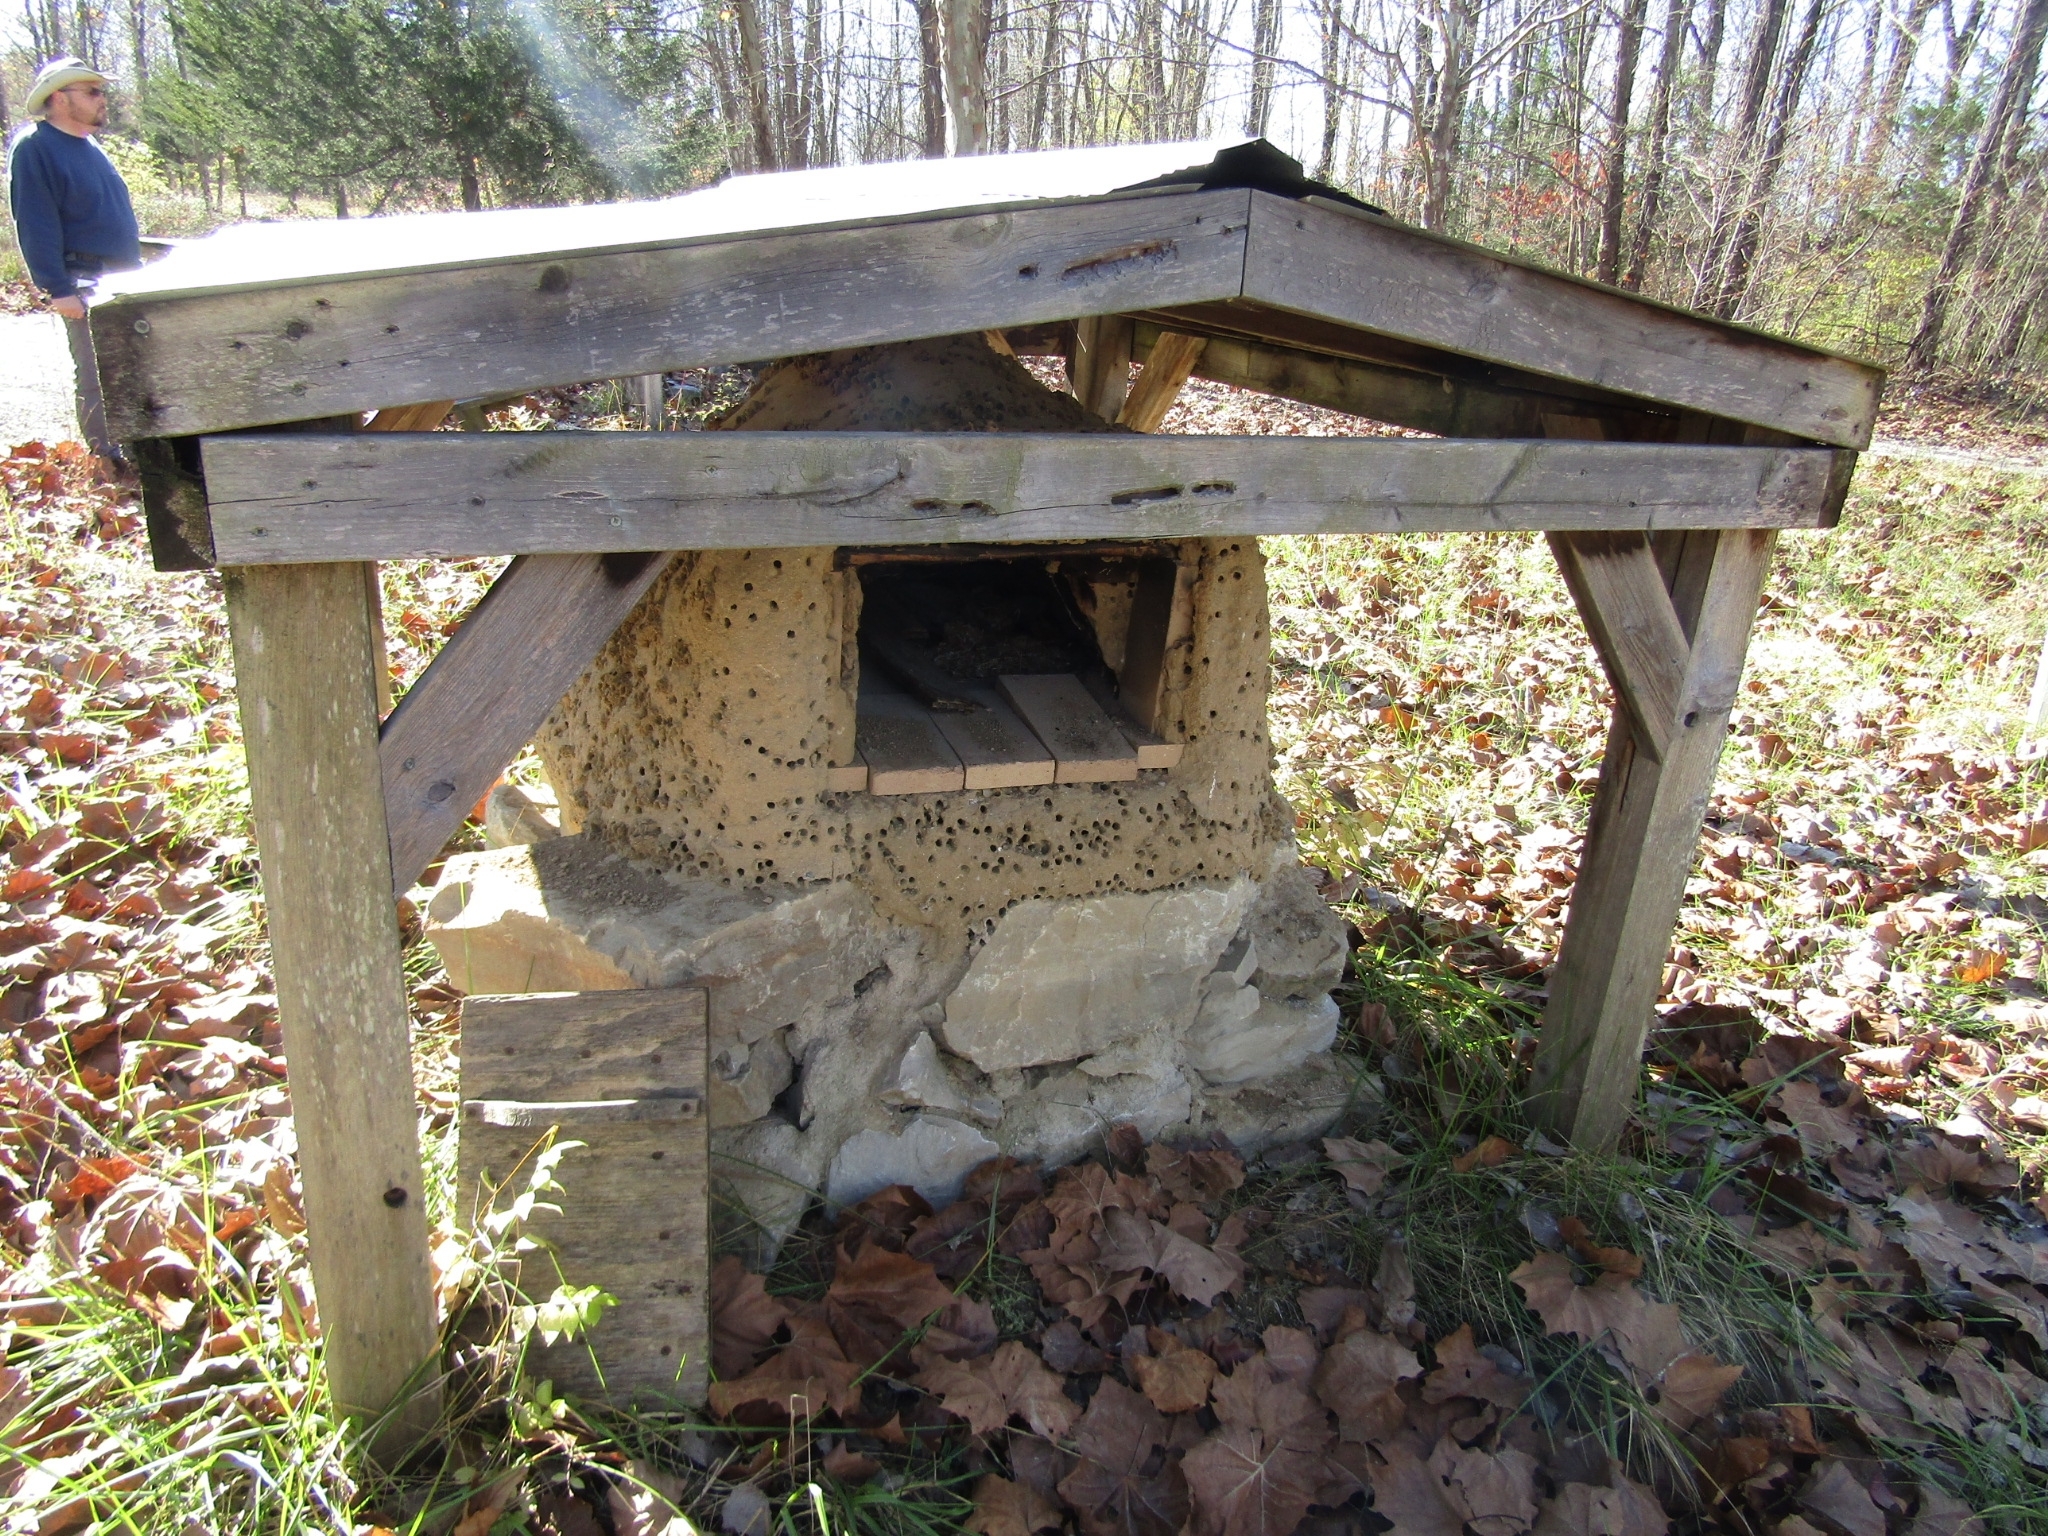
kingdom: Animalia
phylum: Arthropoda
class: Insecta
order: Hymenoptera
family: Apidae
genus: Anthophora
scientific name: Anthophora
